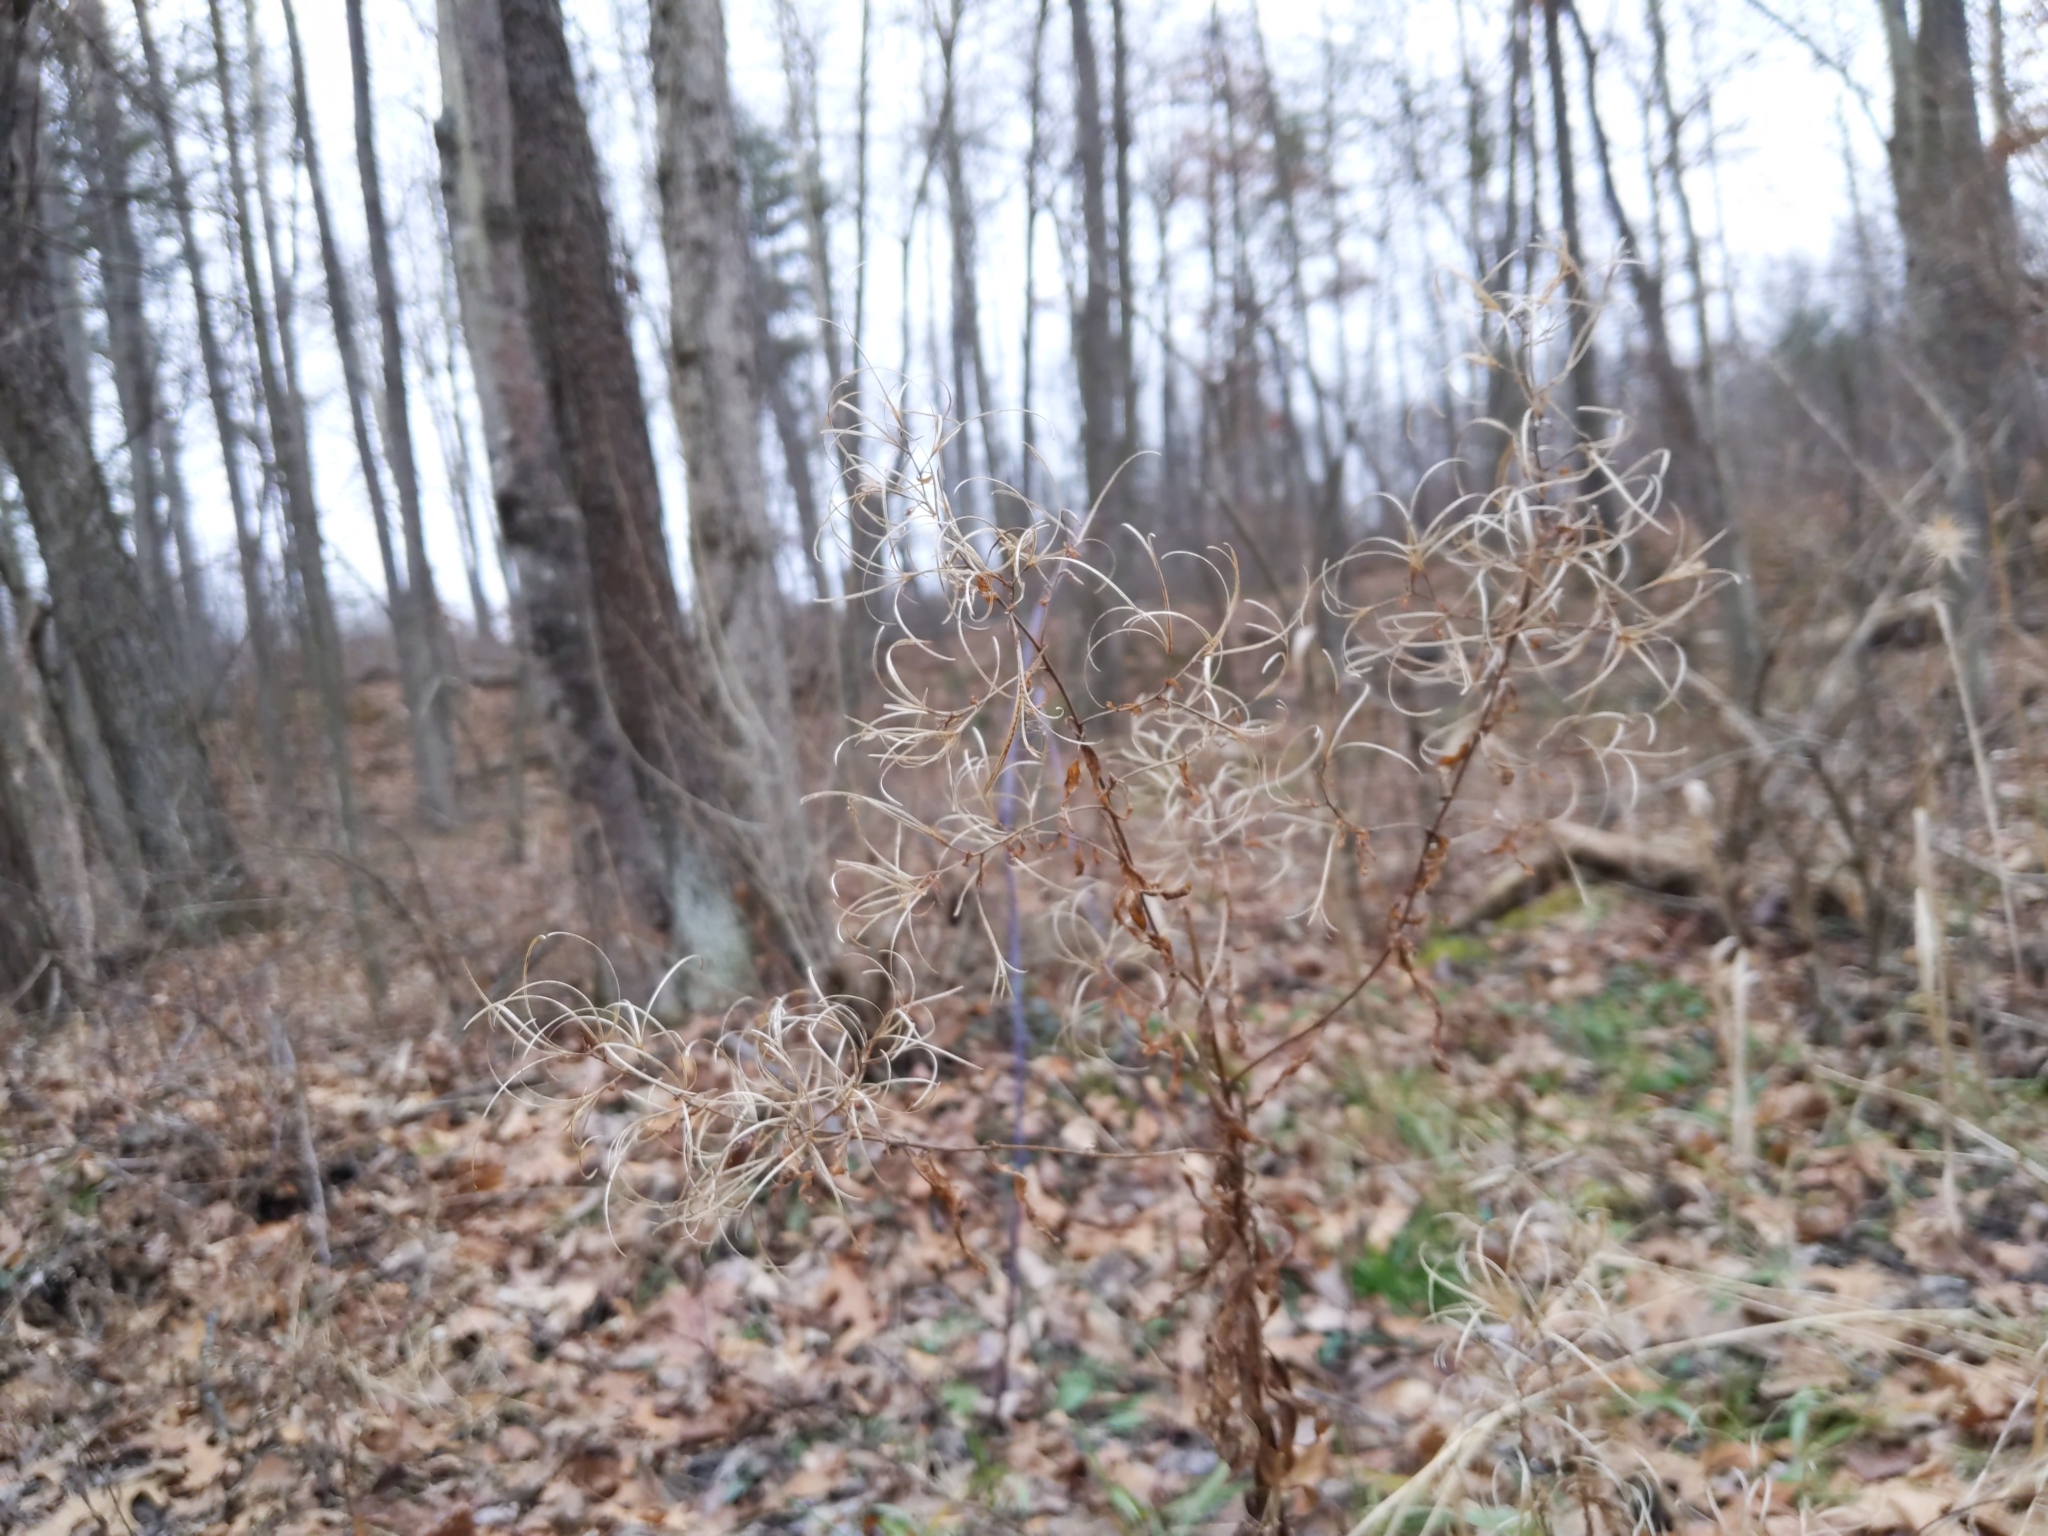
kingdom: Plantae
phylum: Tracheophyta
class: Magnoliopsida
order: Myrtales
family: Onagraceae
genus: Epilobium
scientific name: Epilobium coloratum
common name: Bronze willowherb
